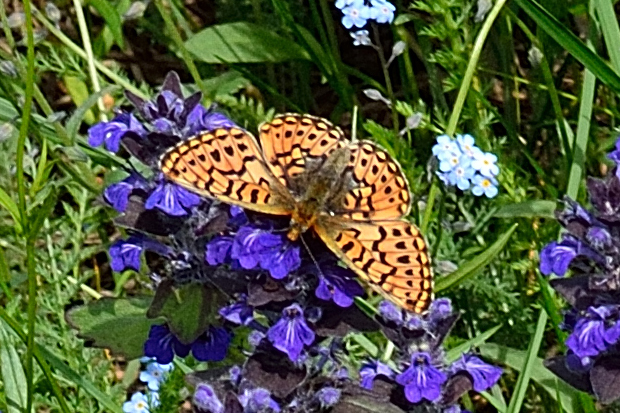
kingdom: Animalia
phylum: Arthropoda
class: Insecta
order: Lepidoptera
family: Nymphalidae
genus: Clossiana
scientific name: Clossiana euphrosyne
